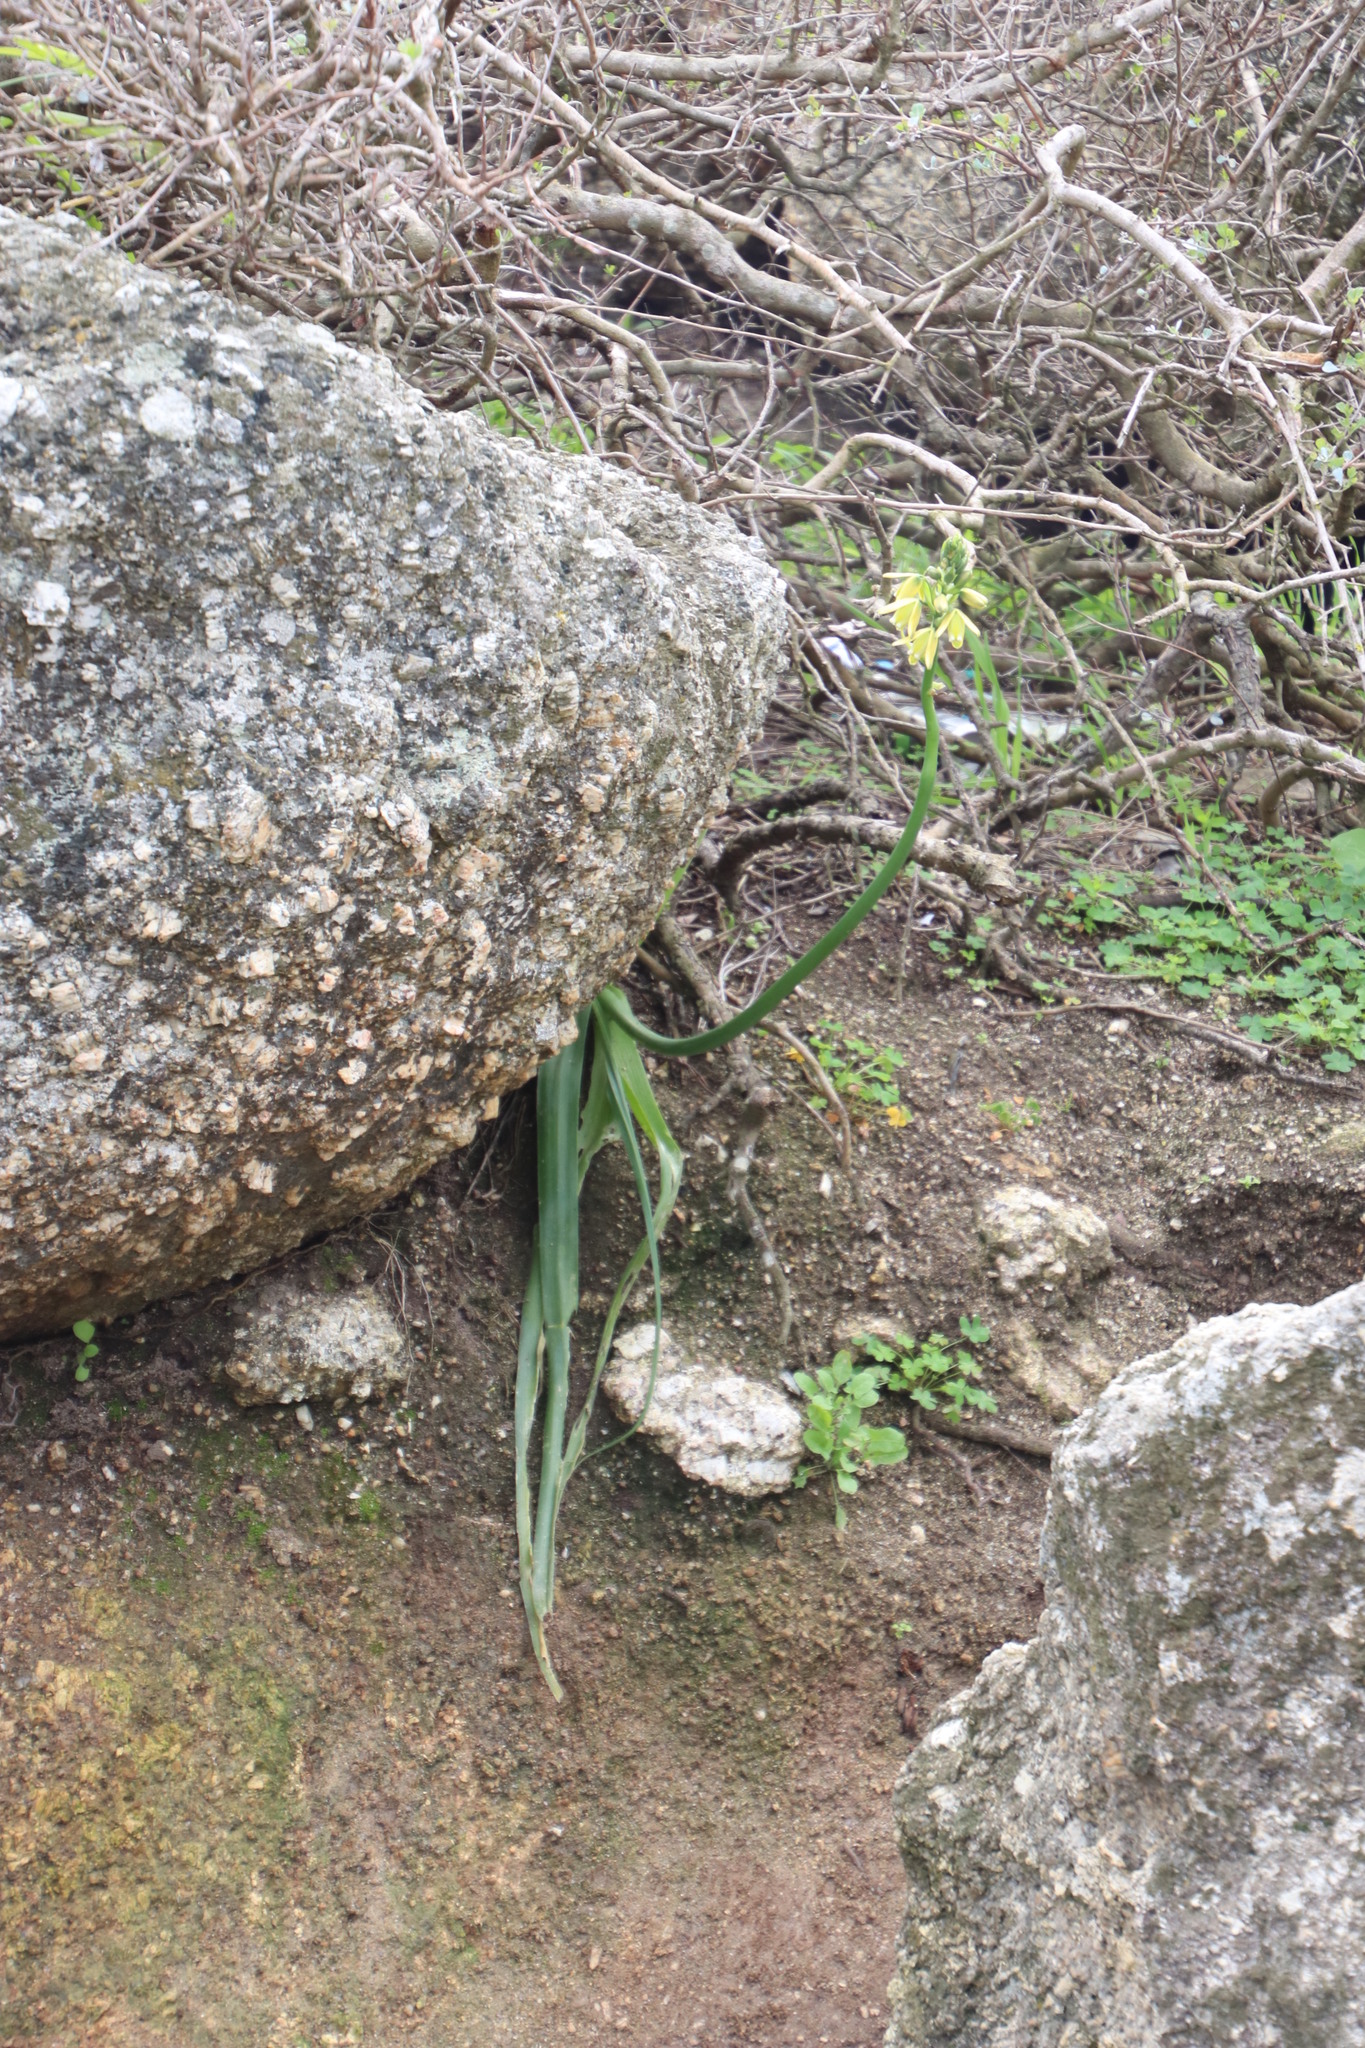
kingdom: Plantae
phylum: Tracheophyta
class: Liliopsida
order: Asparagales
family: Asparagaceae
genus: Albuca
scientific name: Albuca flaccida
